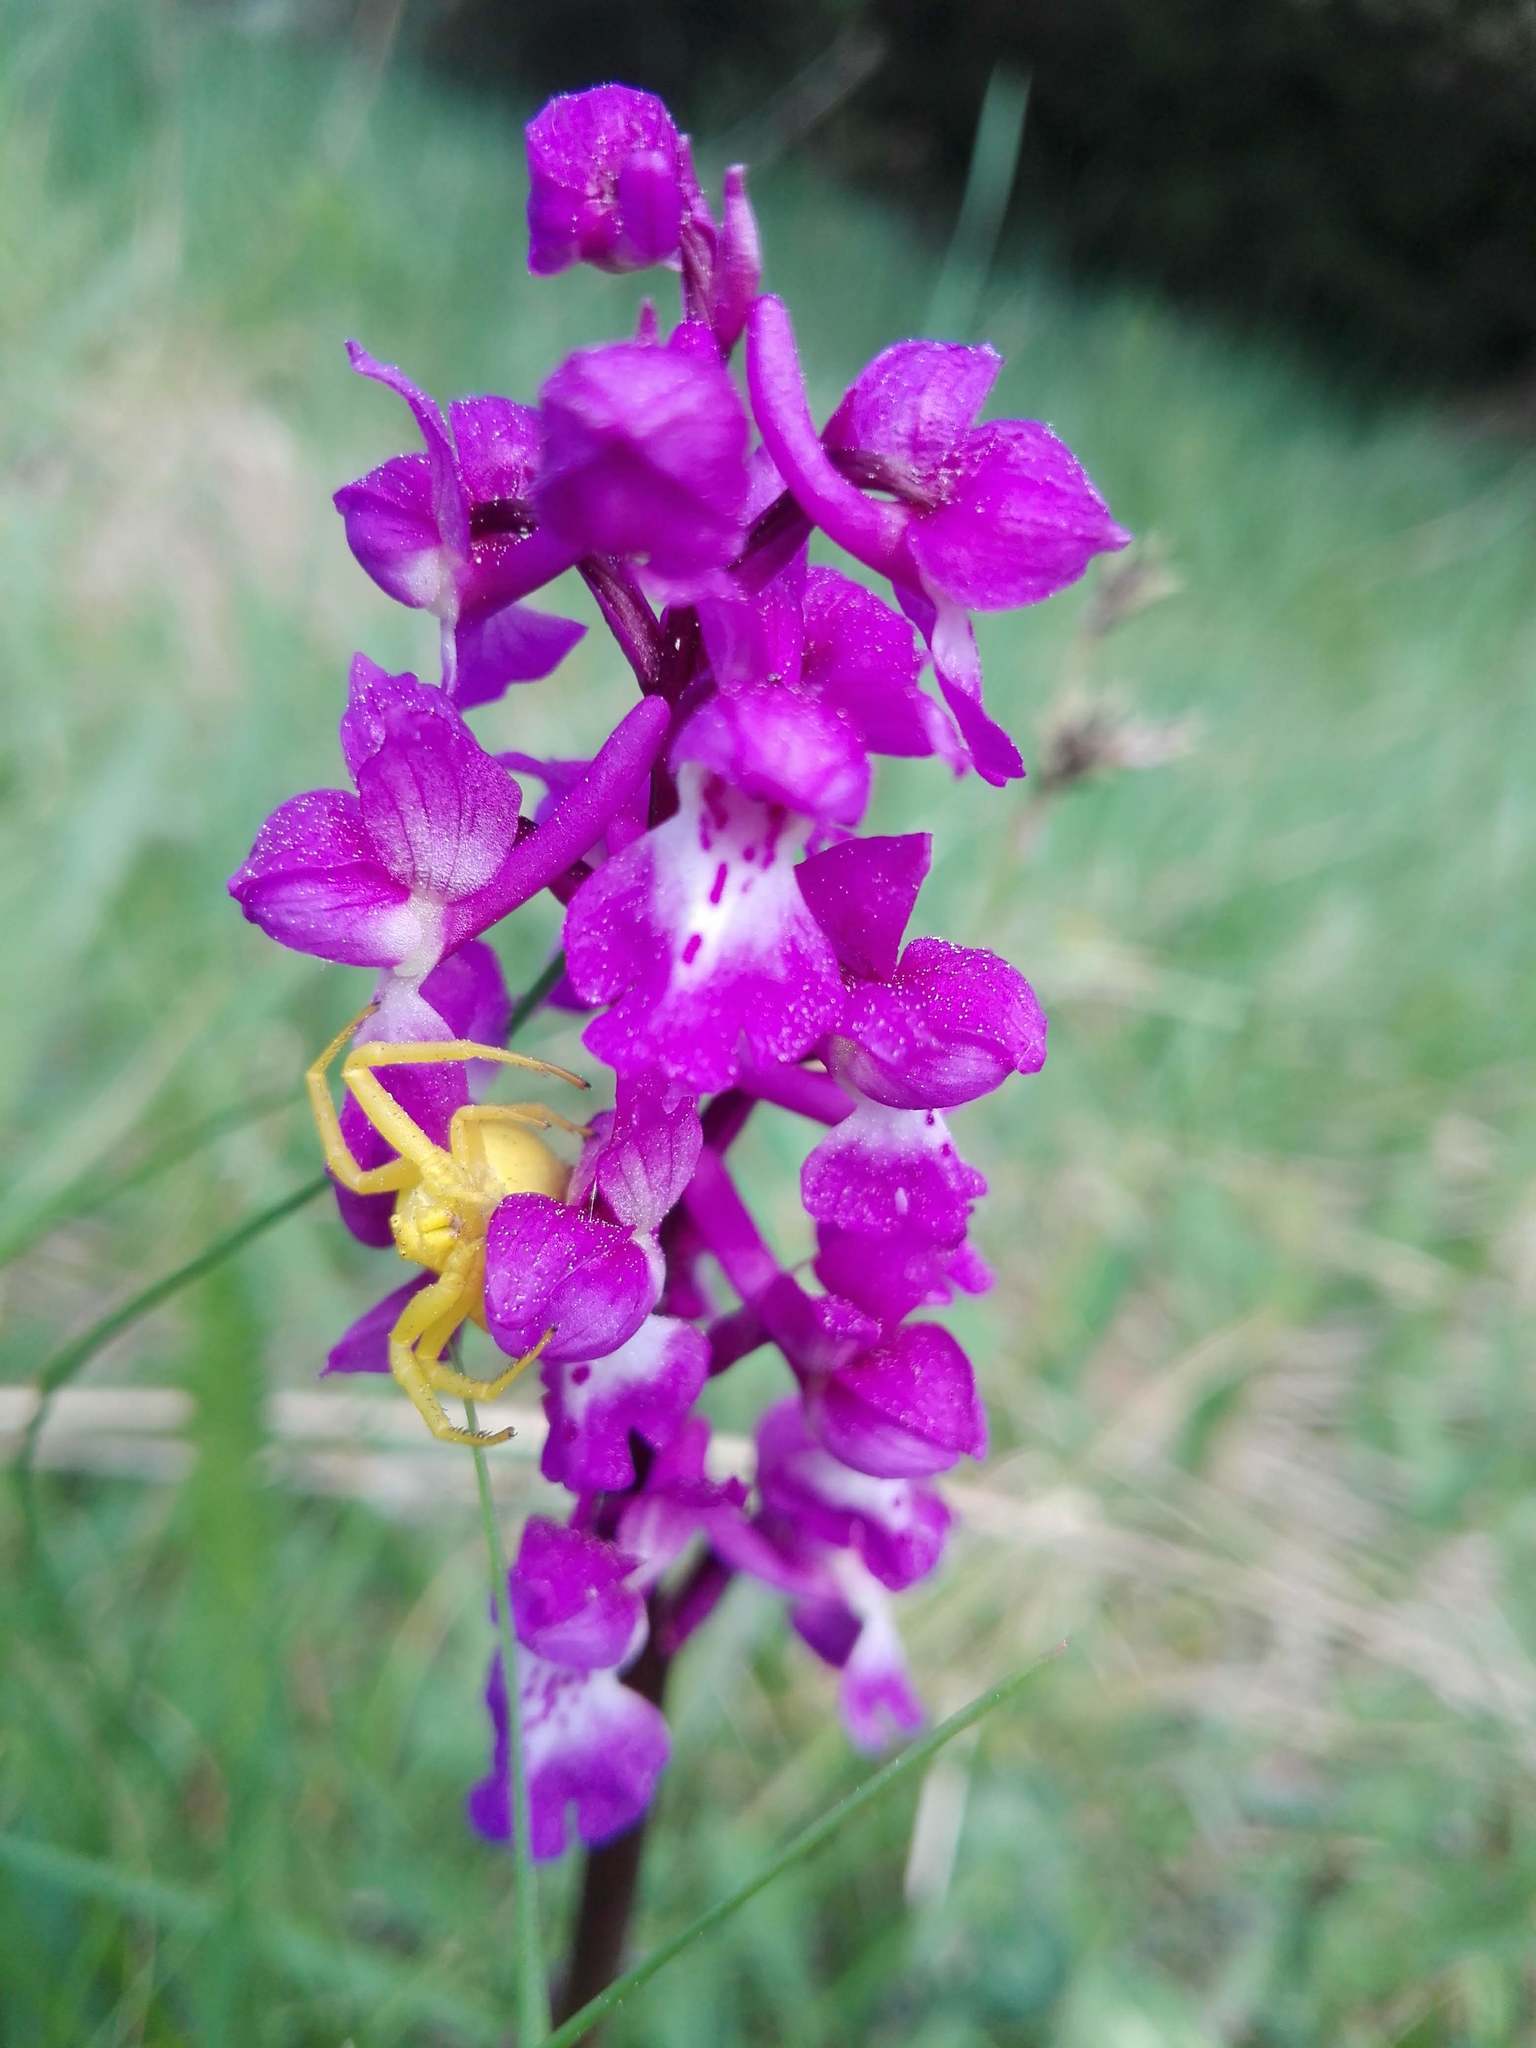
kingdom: Animalia
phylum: Arthropoda
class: Arachnida
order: Araneae
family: Thomisidae
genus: Misumena
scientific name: Misumena vatia
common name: Goldenrod crab spider
